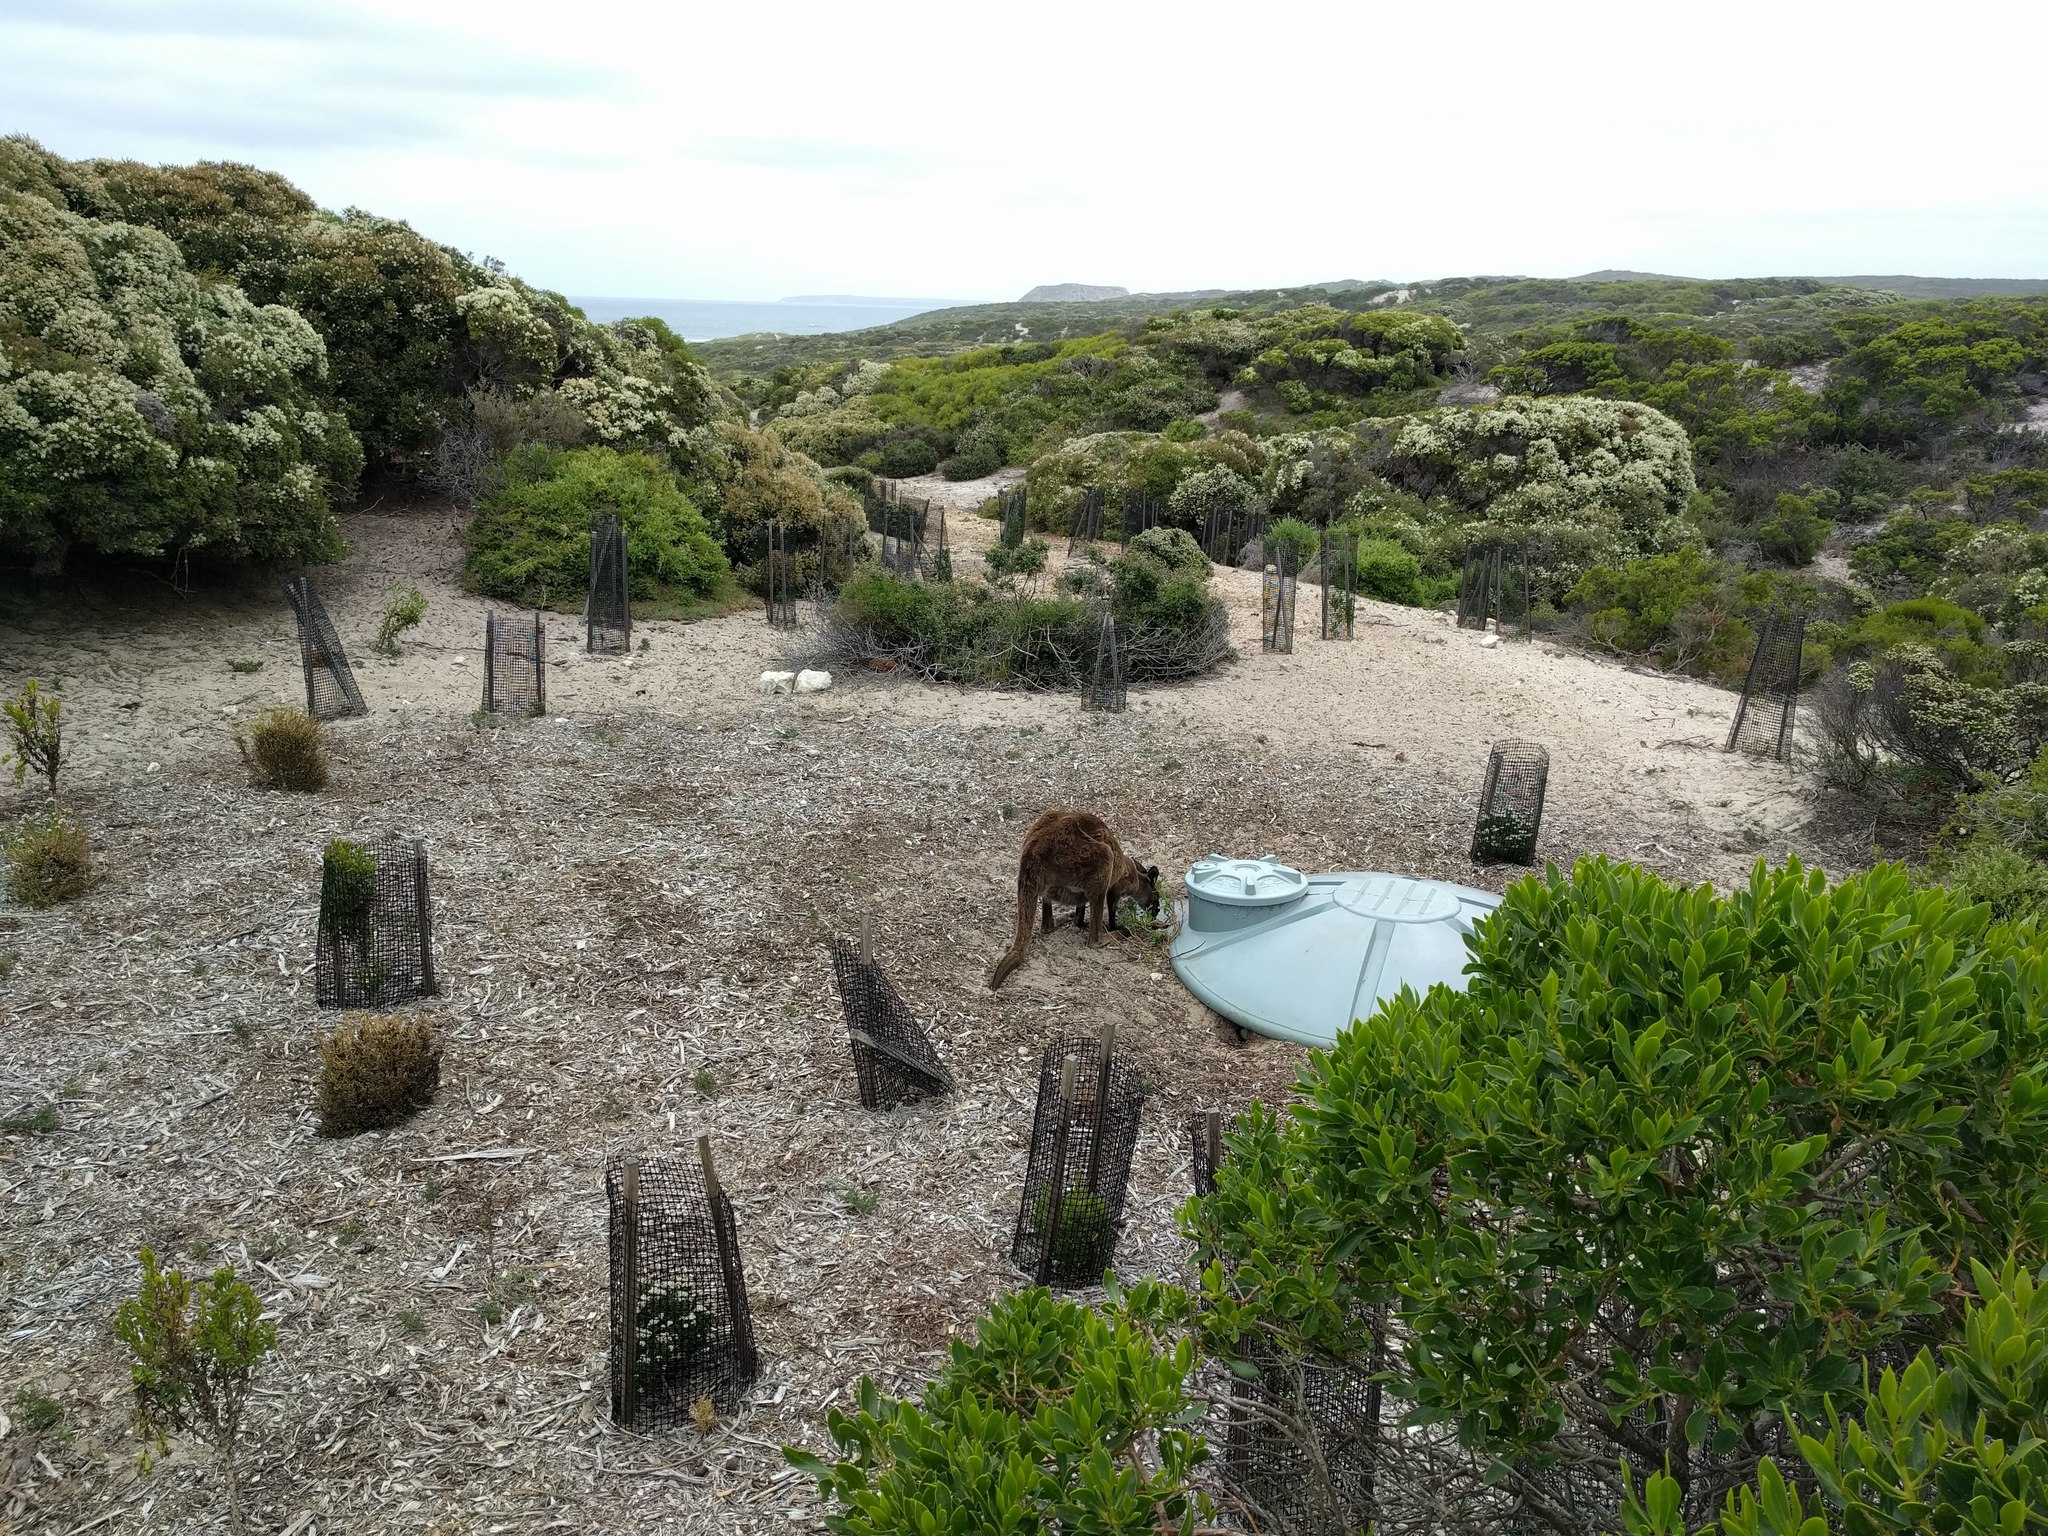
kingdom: Animalia
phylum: Chordata
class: Mammalia
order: Diprotodontia
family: Macropodidae
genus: Macropus
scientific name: Macropus fuliginosus
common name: Western grey kangaroo
